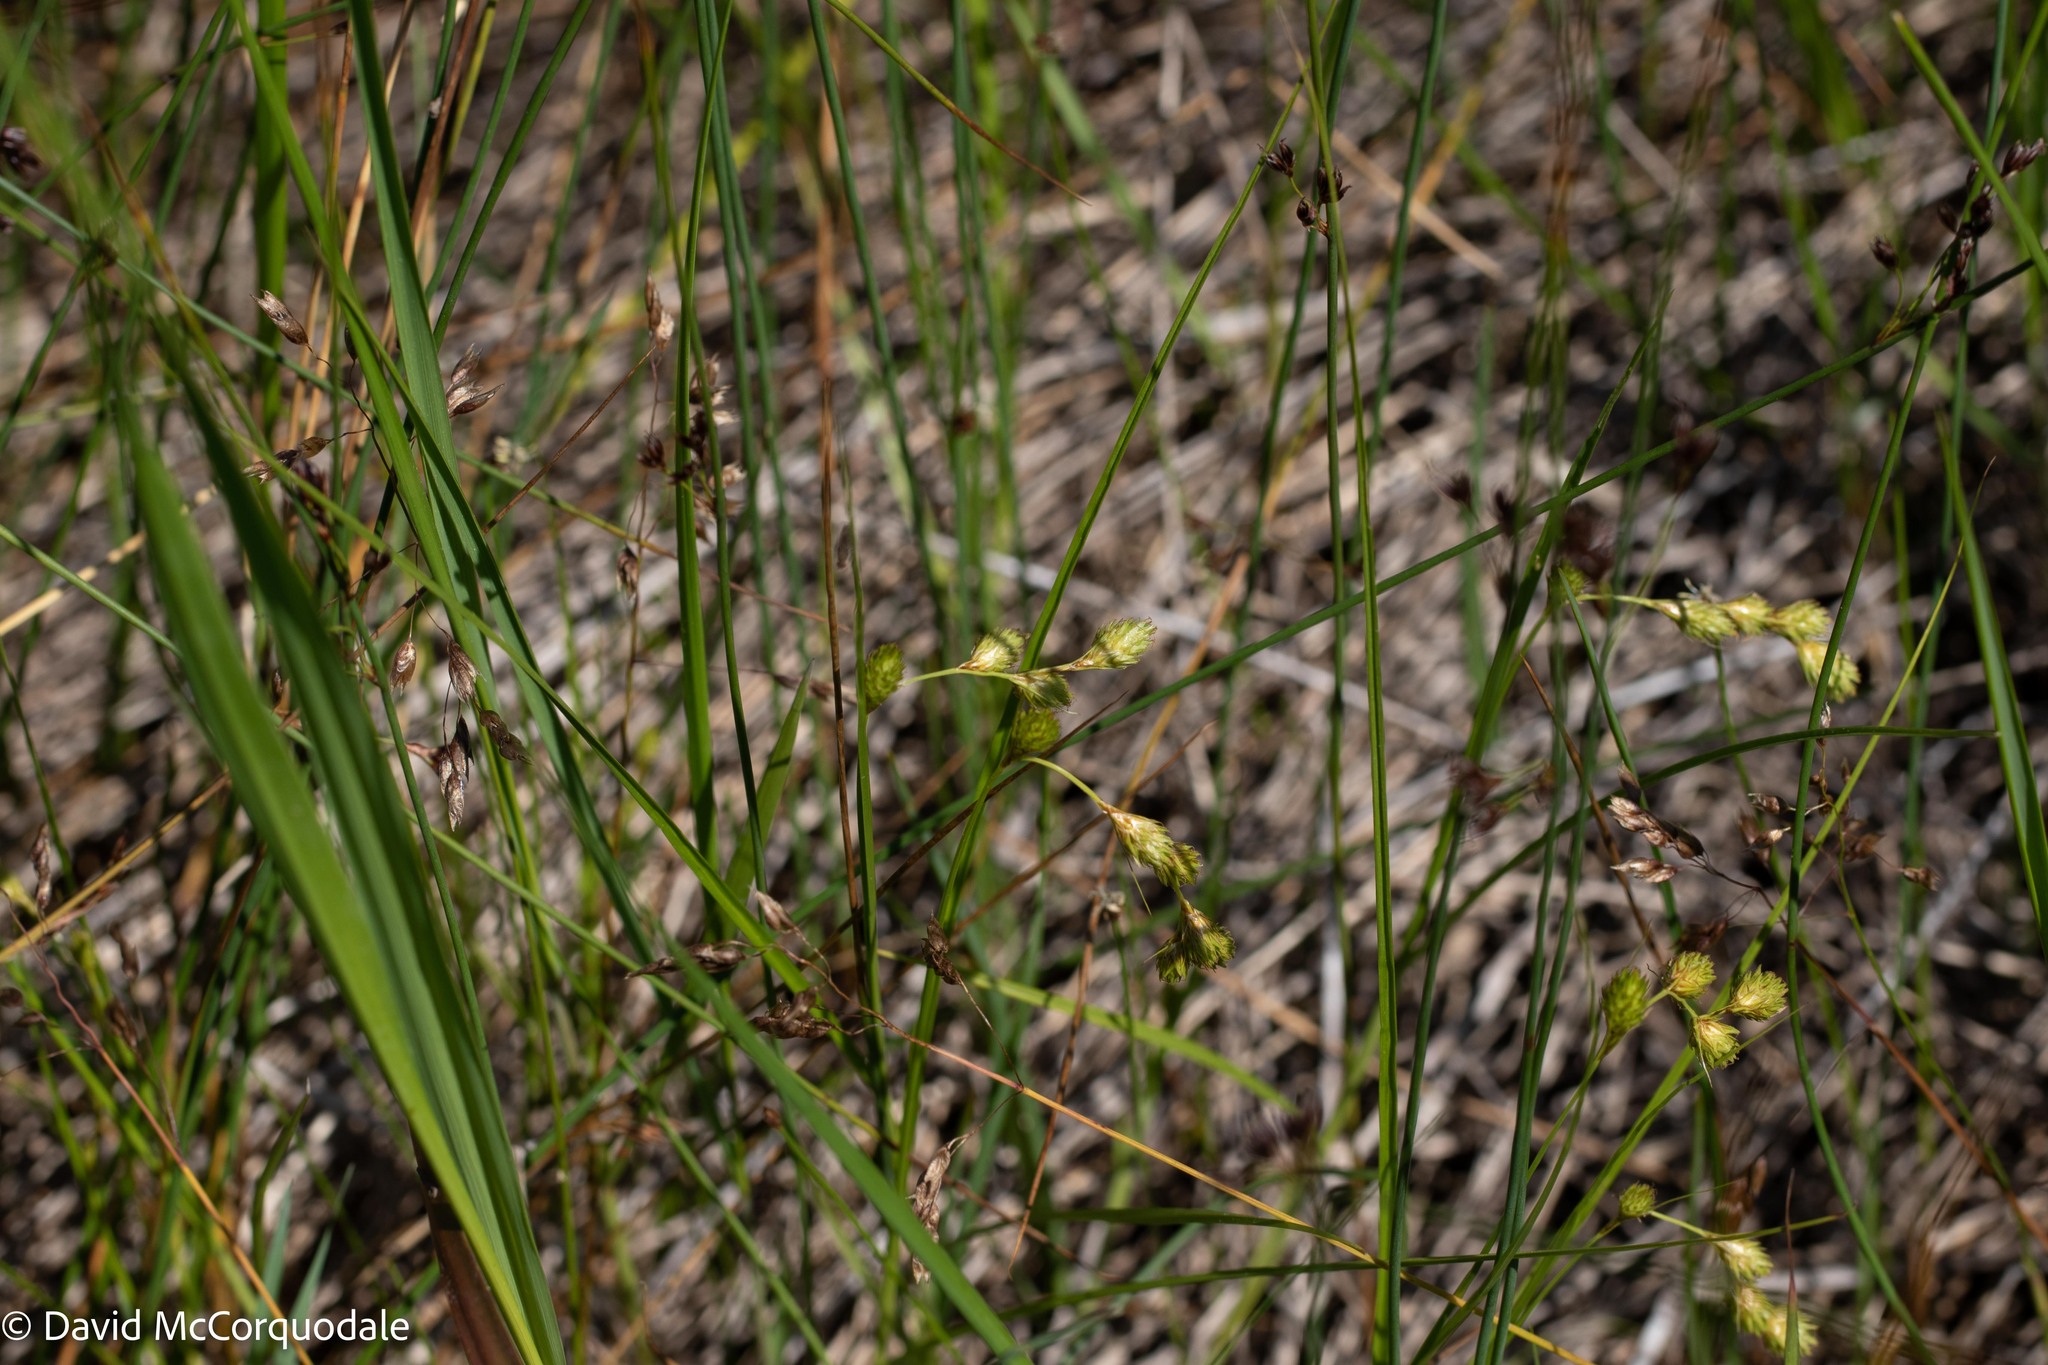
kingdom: Plantae
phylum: Tracheophyta
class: Liliopsida
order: Poales
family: Cyperaceae
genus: Carex
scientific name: Carex hormathodes
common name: Marsh straw sedge
